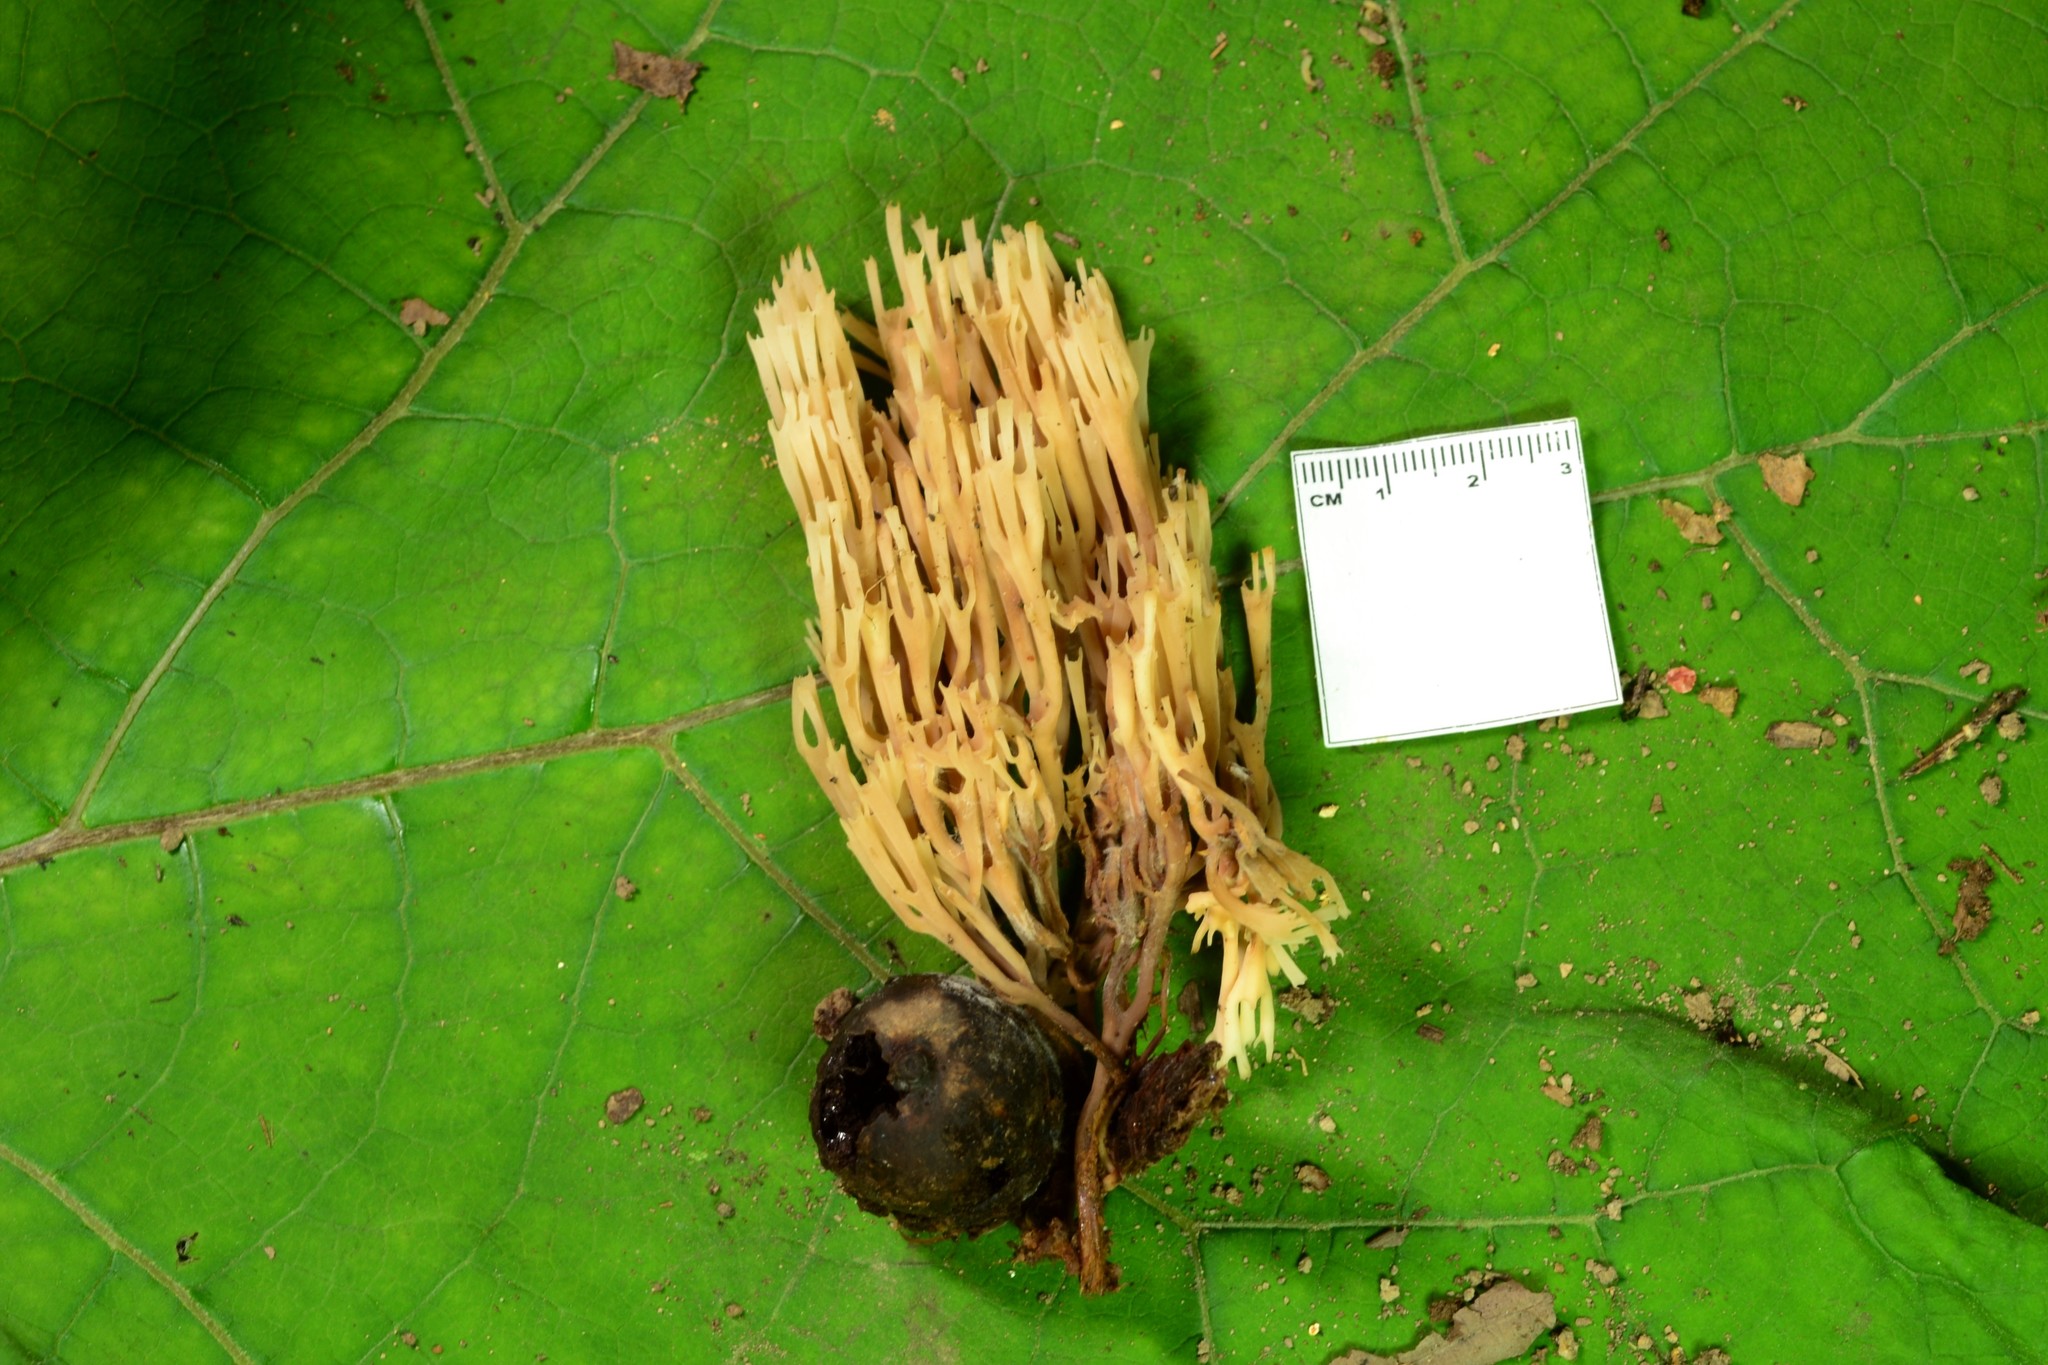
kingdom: Fungi
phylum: Basidiomycota
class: Agaricomycetes
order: Russulales
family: Auriscalpiaceae
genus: Artomyces
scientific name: Artomyces pyxidatus
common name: Crown-tipped coral fungus
